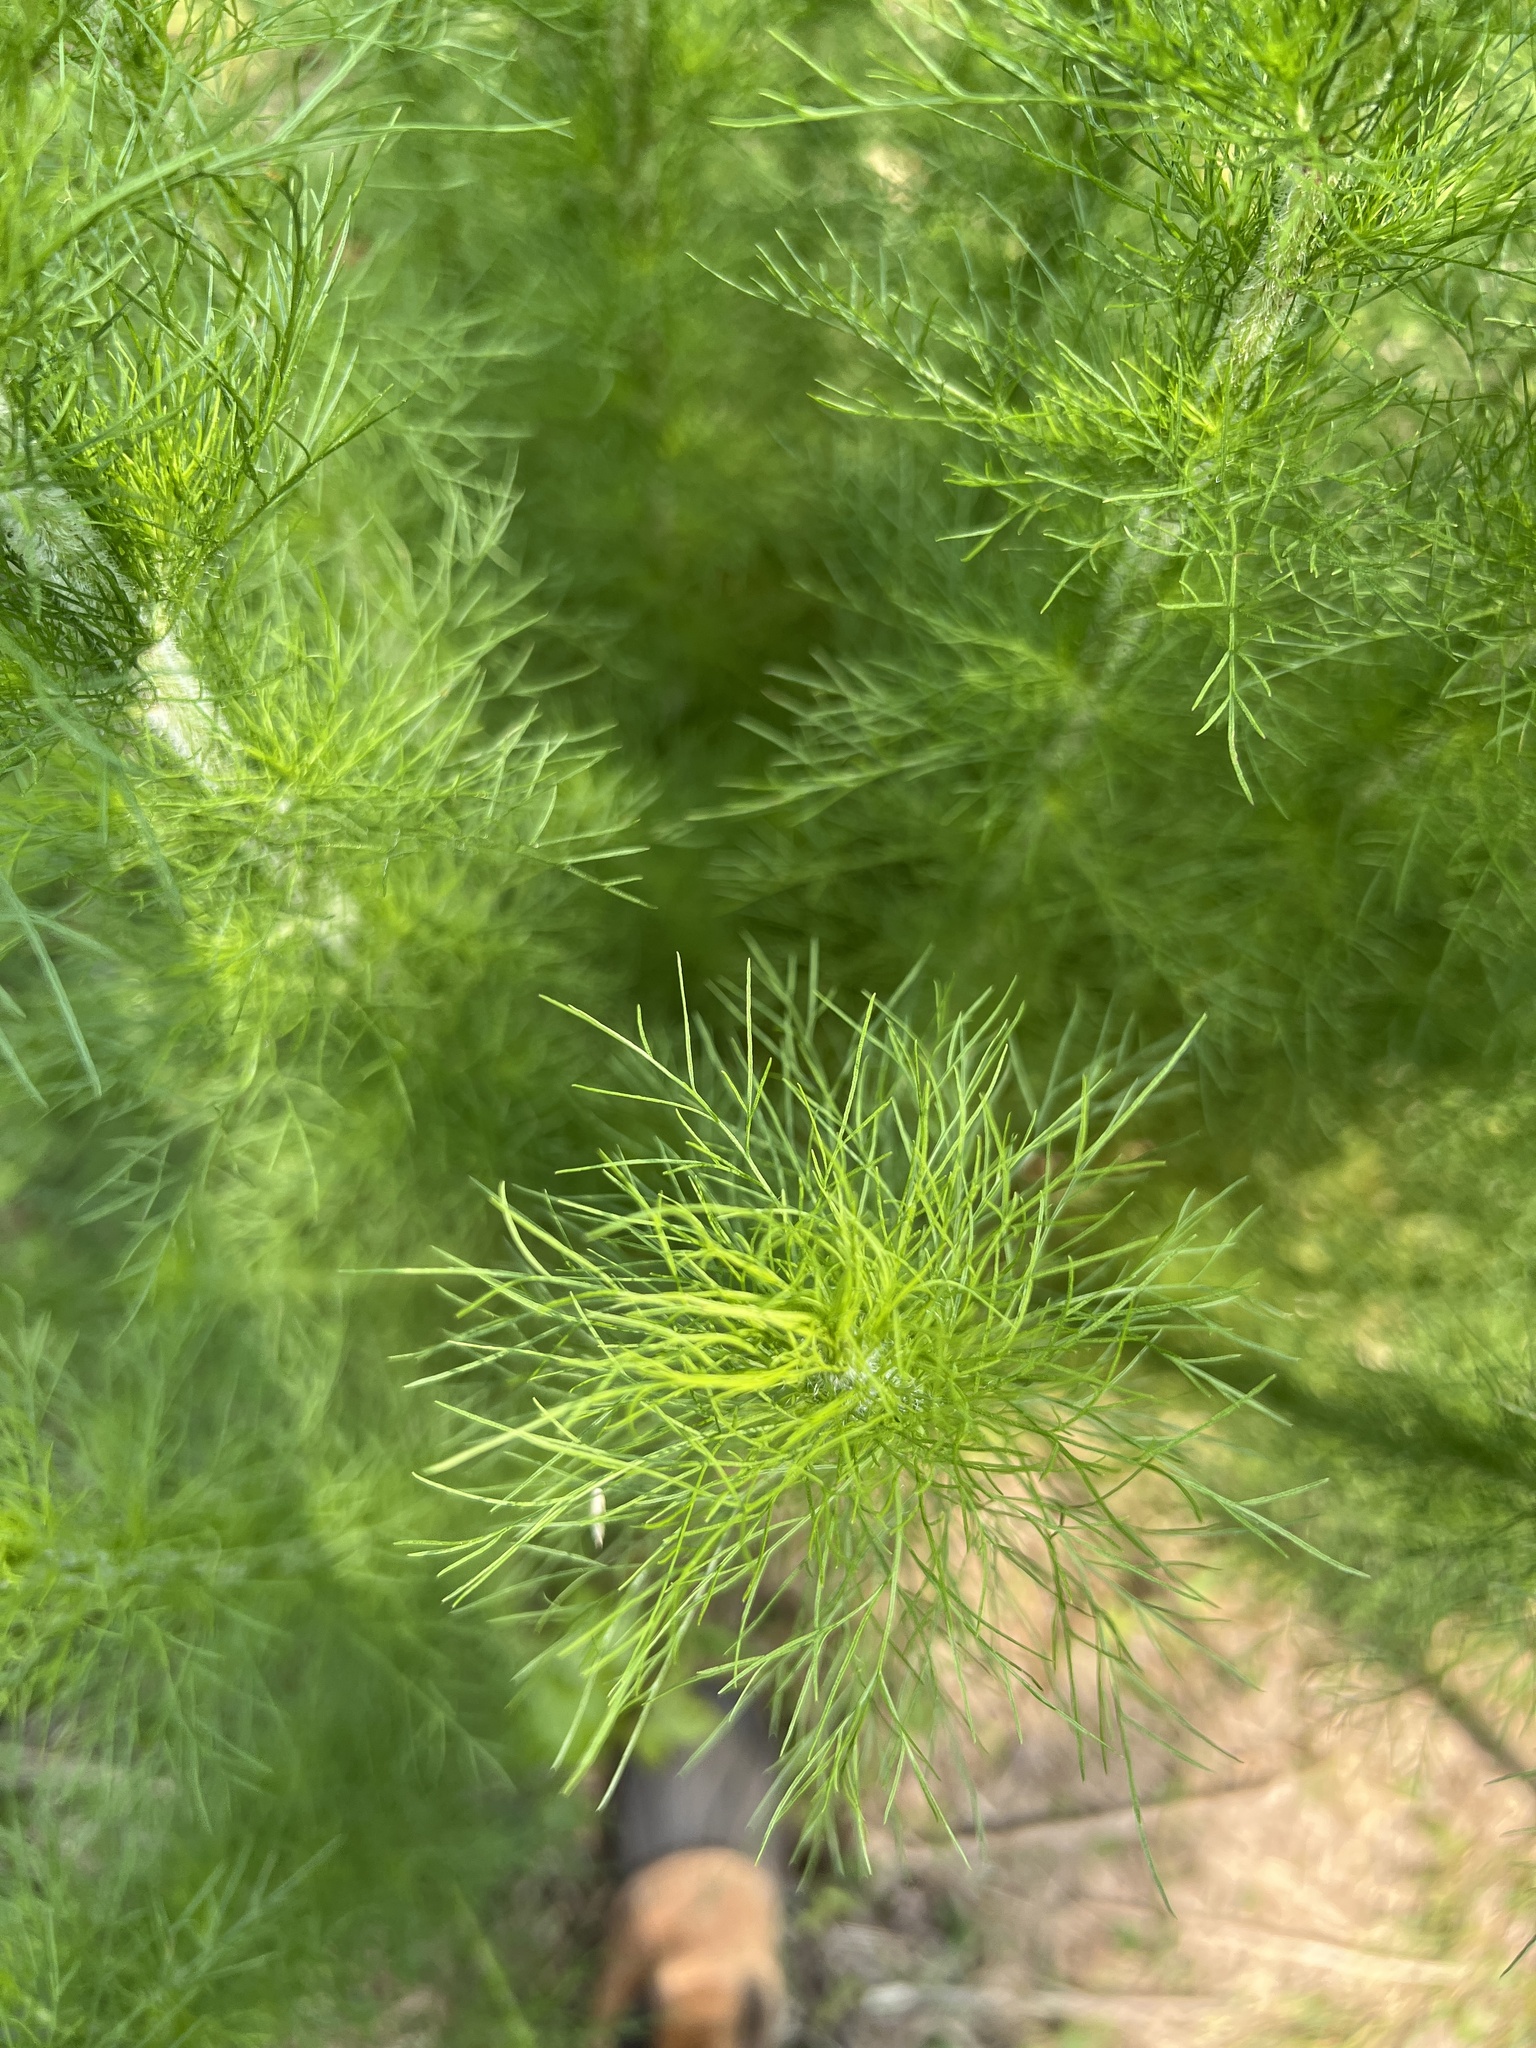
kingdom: Plantae
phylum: Tracheophyta
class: Magnoliopsida
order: Asterales
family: Asteraceae
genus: Eupatorium
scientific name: Eupatorium capillifolium
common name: Dog-fennel
